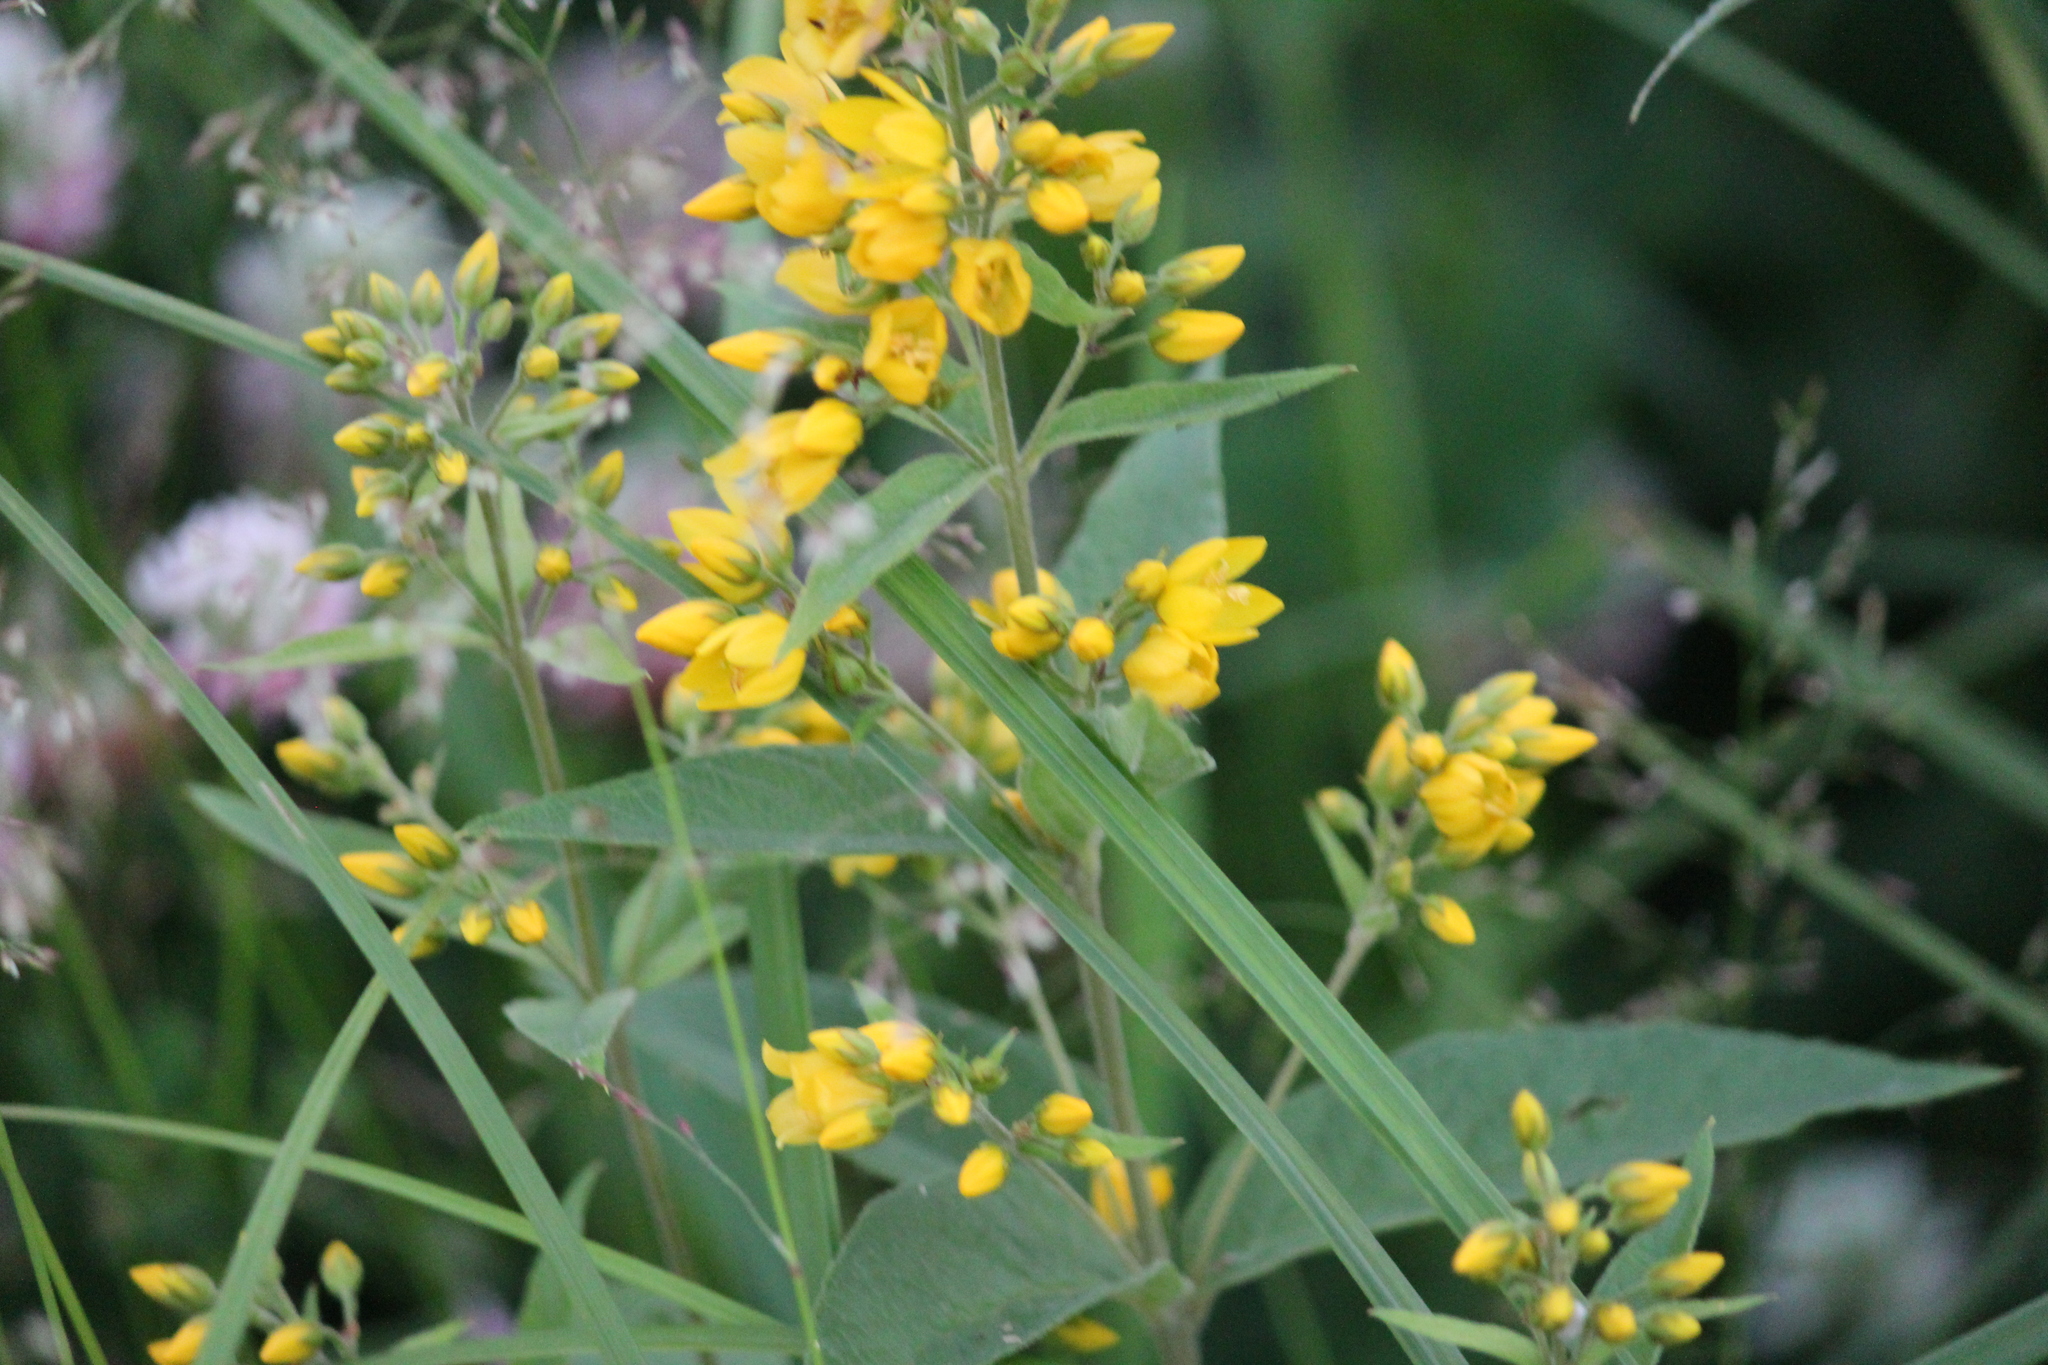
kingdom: Plantae
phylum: Tracheophyta
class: Magnoliopsida
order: Ericales
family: Primulaceae
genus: Lysimachia
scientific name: Lysimachia vulgaris
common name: Yellow loosestrife
